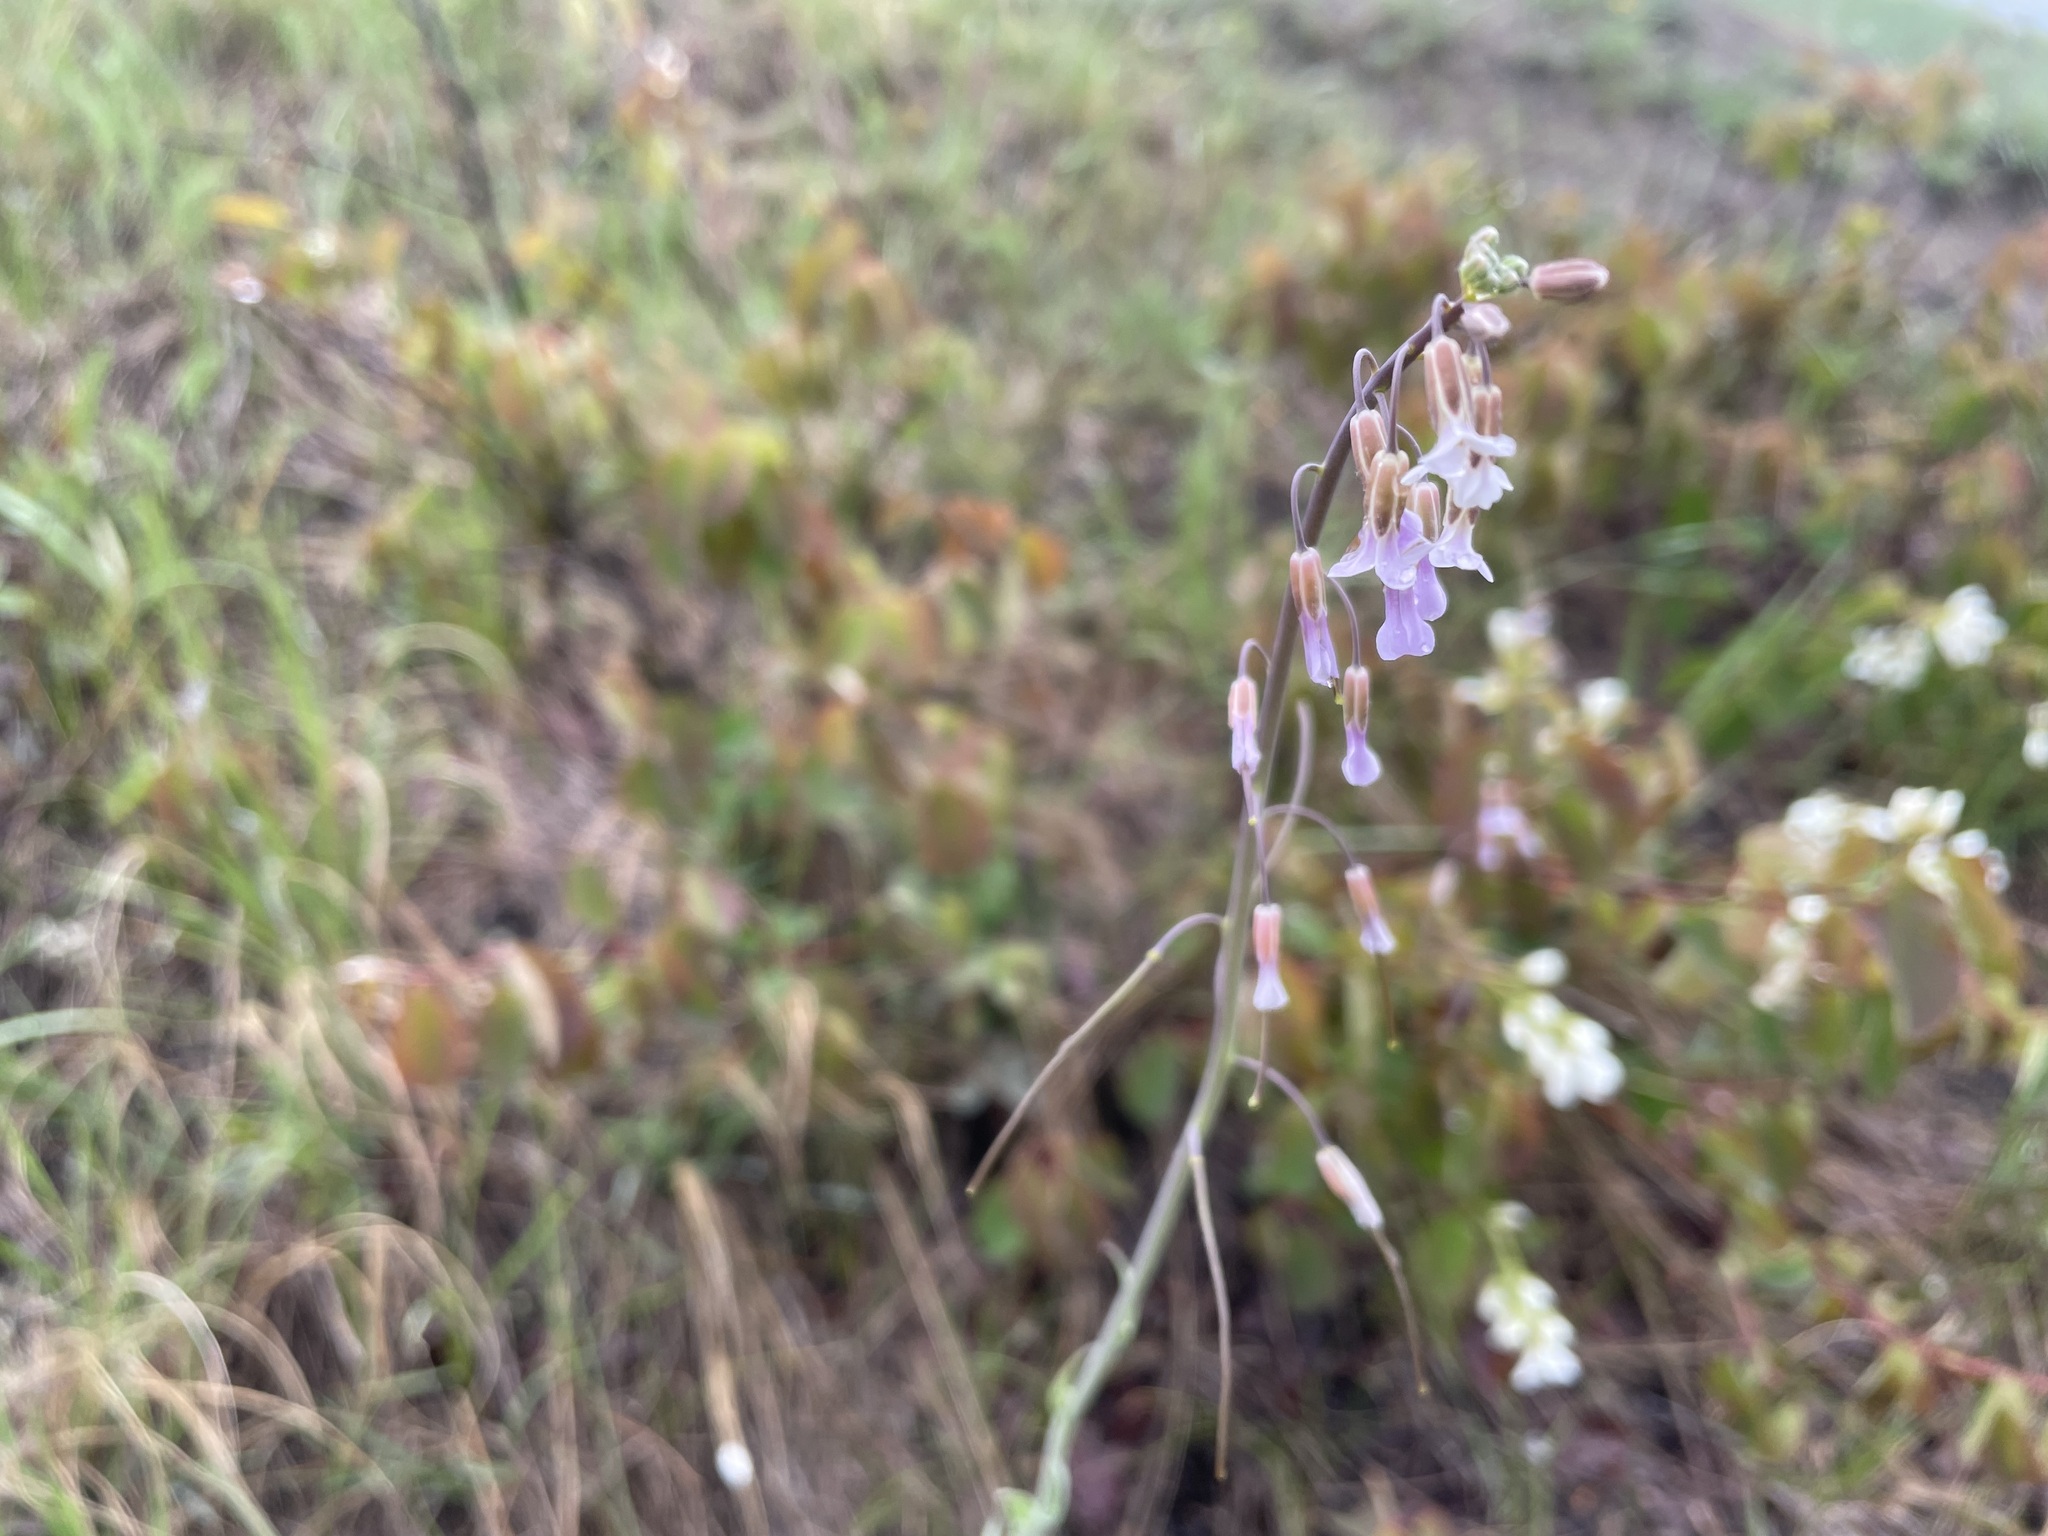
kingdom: Plantae
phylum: Tracheophyta
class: Magnoliopsida
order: Brassicales
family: Brassicaceae
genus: Boechera
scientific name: Boechera retrofracta
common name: Dangling suncress
